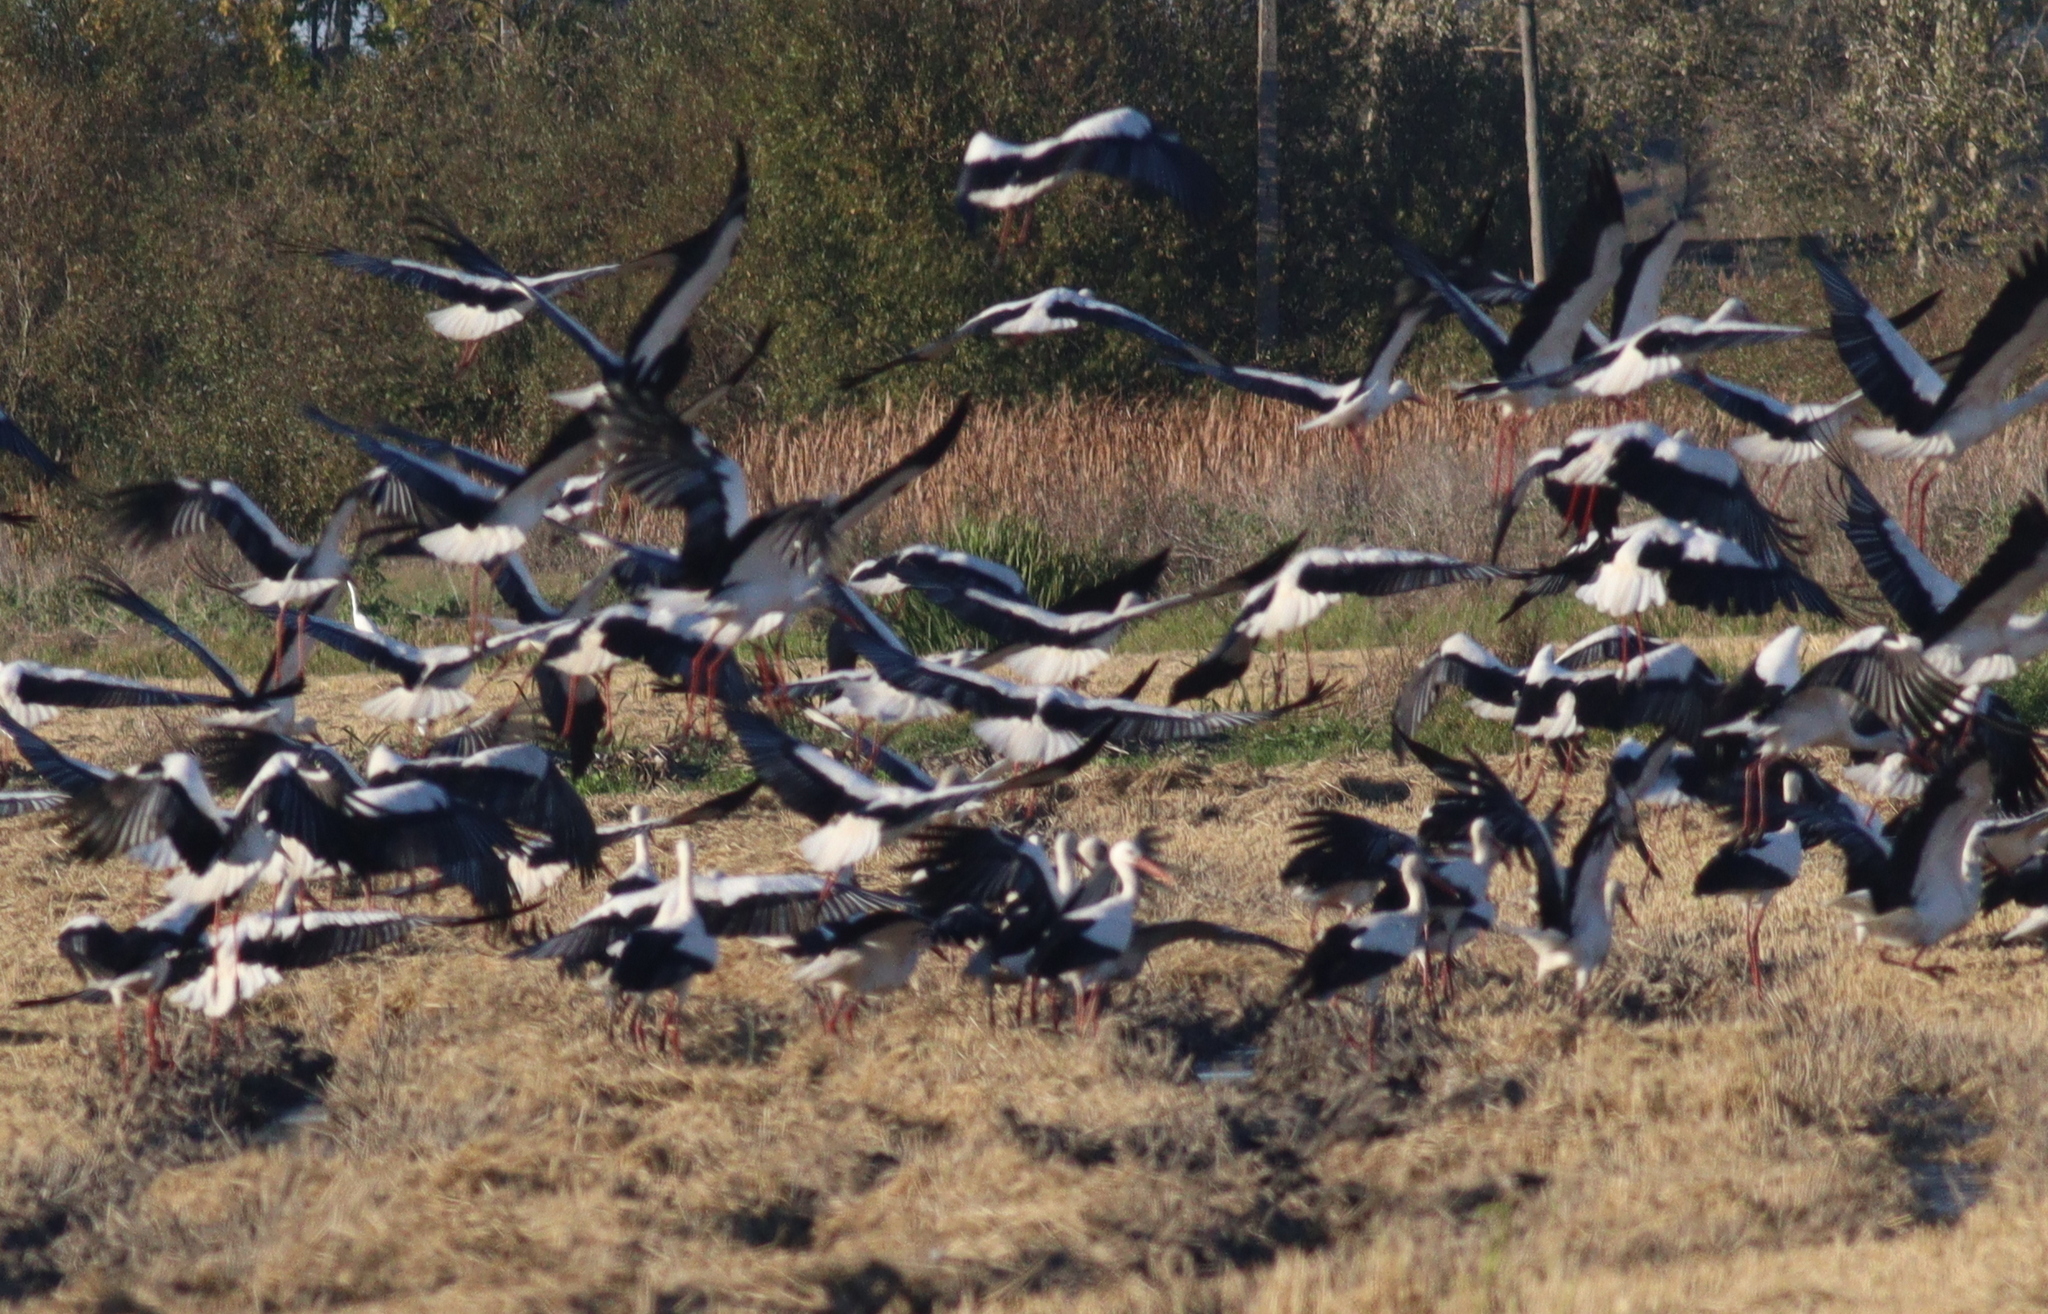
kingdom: Animalia
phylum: Chordata
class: Aves
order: Ciconiiformes
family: Ciconiidae
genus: Ciconia
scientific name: Ciconia ciconia
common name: White stork
